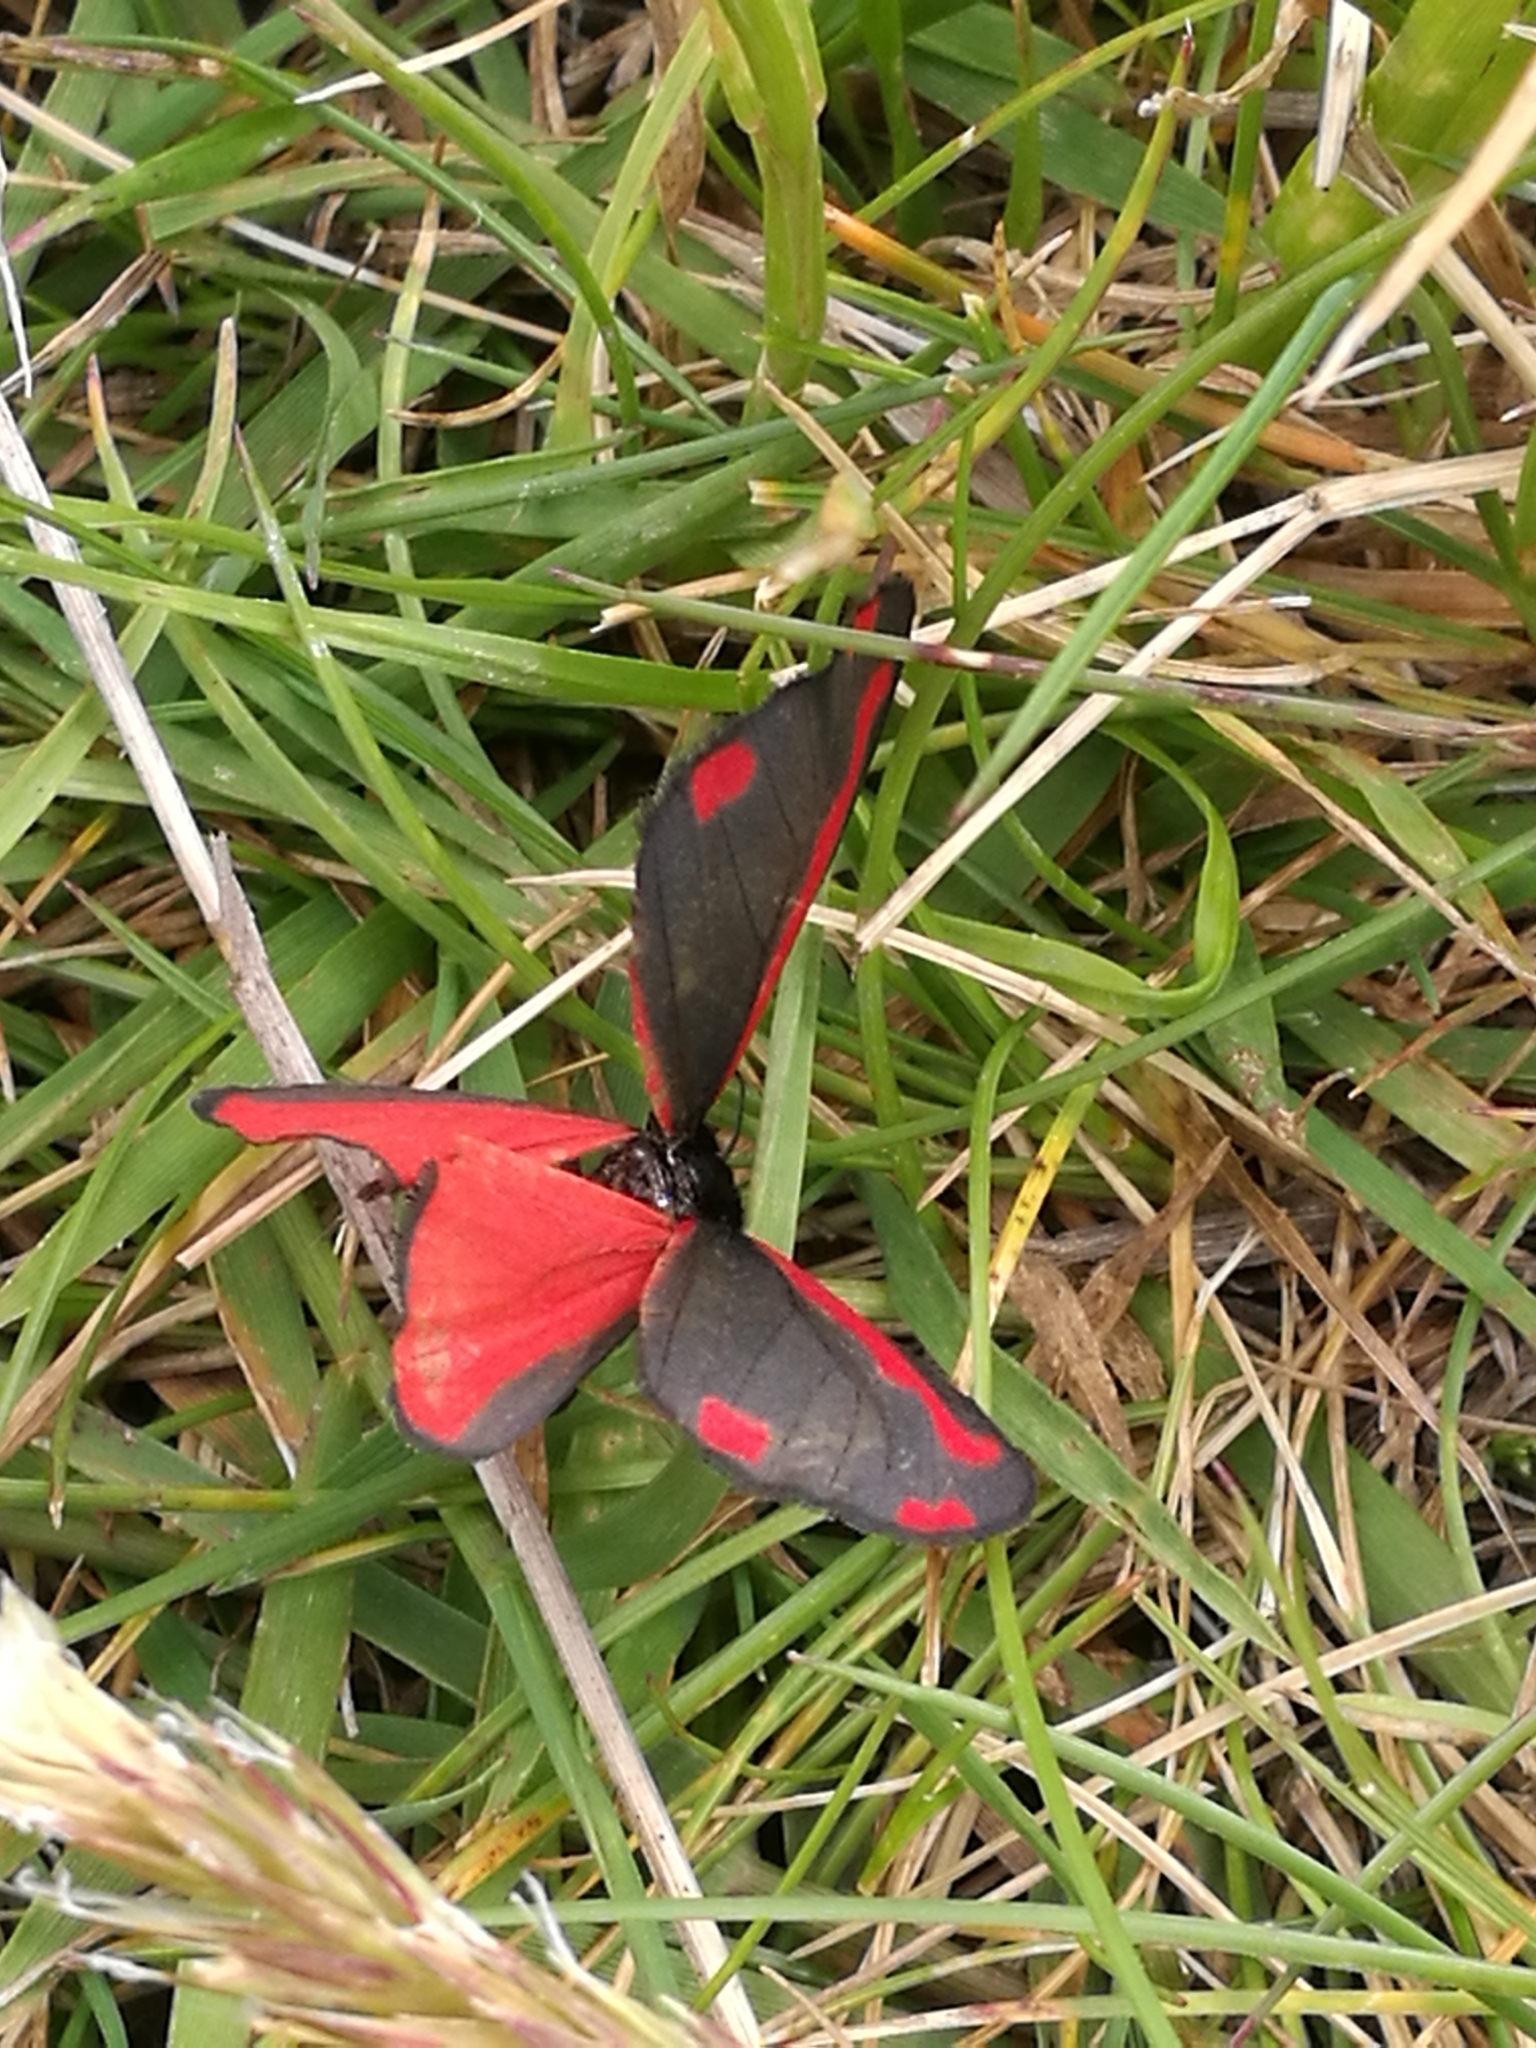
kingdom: Animalia
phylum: Arthropoda
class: Insecta
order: Lepidoptera
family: Erebidae
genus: Tyria
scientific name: Tyria jacobaeae
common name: Cinnabar
